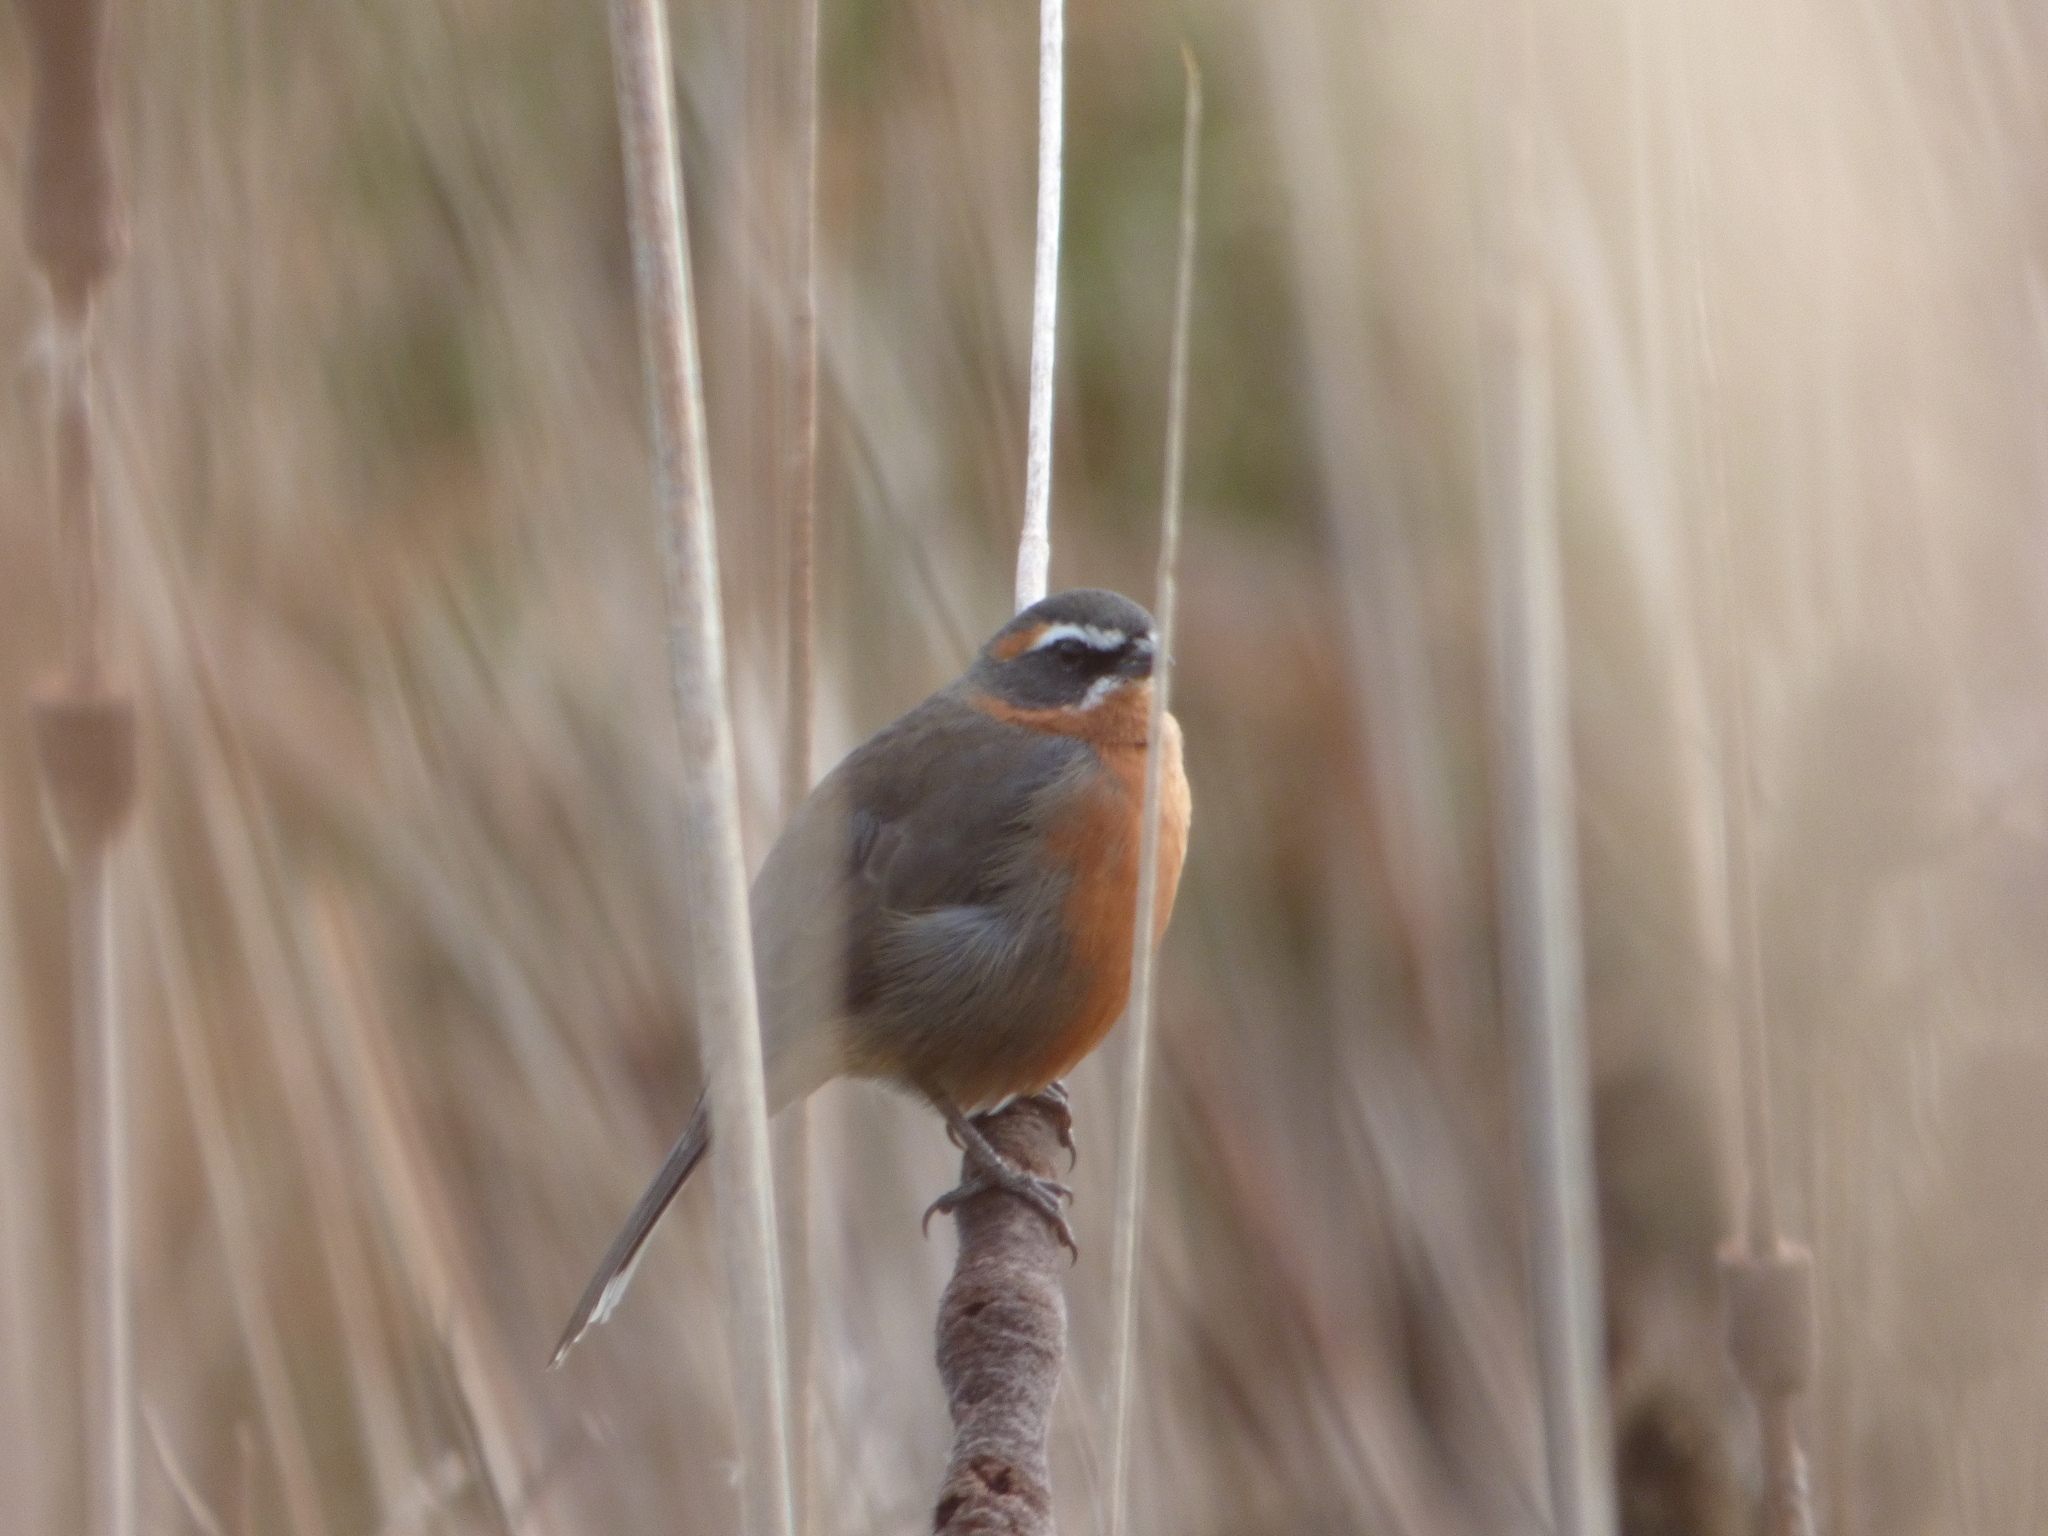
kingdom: Animalia
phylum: Chordata
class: Aves
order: Passeriformes
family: Thraupidae
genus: Poospiza
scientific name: Poospiza nigrorufa
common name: Black-and-rufous warbling finch
